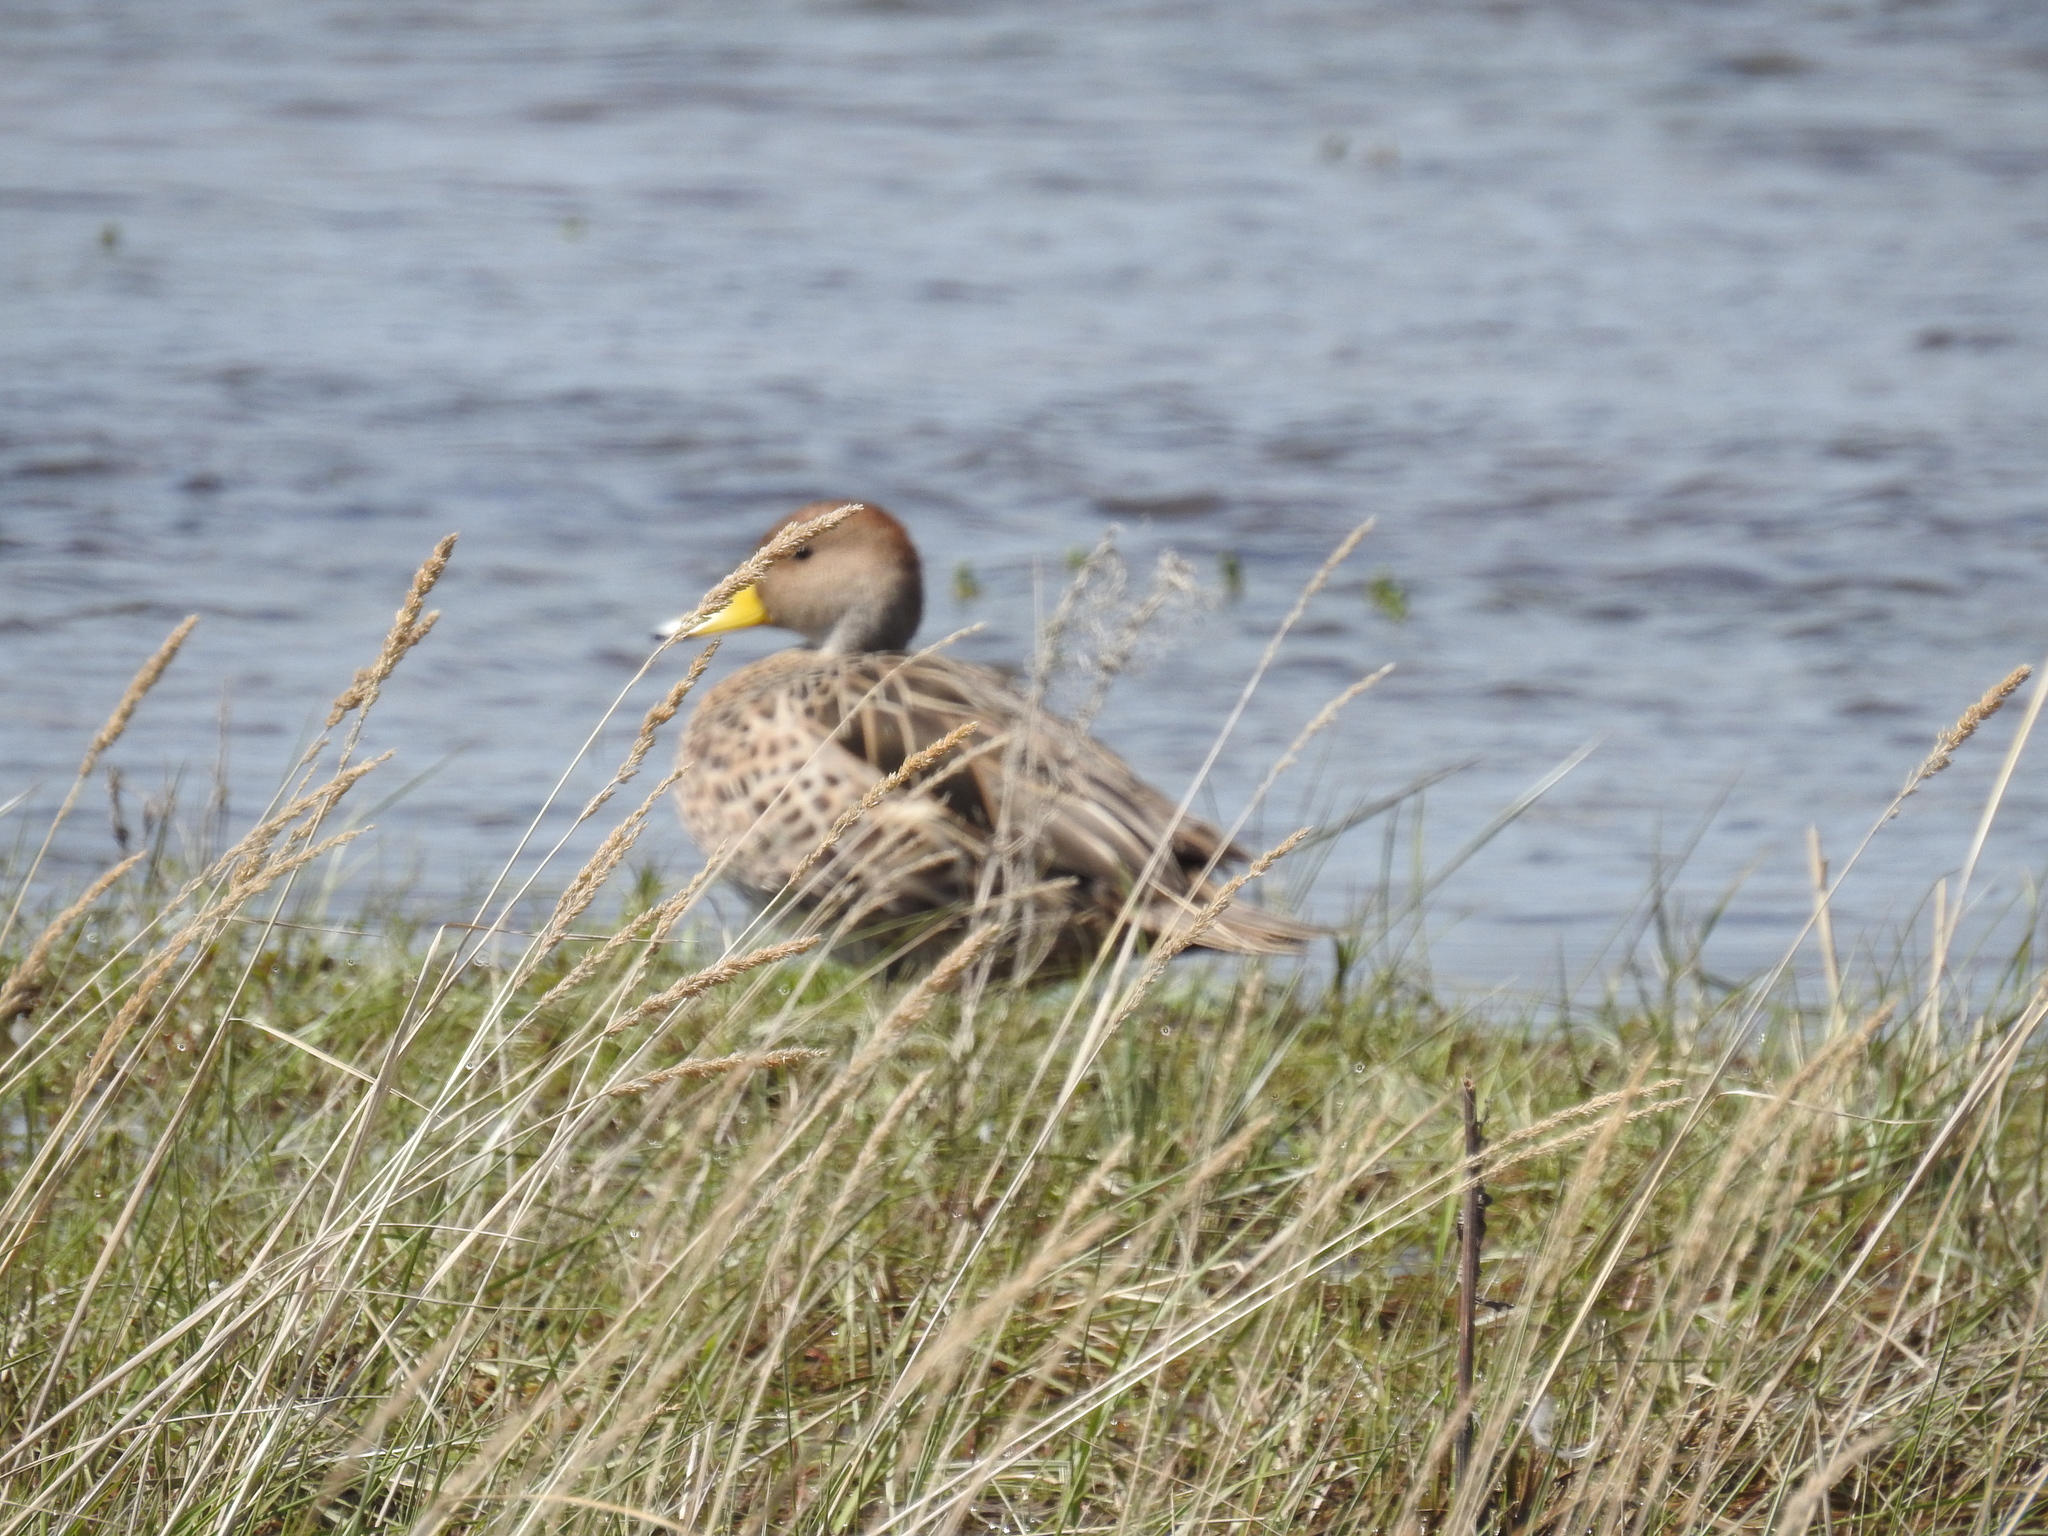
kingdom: Animalia
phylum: Chordata
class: Aves
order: Anseriformes
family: Anatidae
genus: Anas
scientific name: Anas georgica
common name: Yellow-billed pintail
